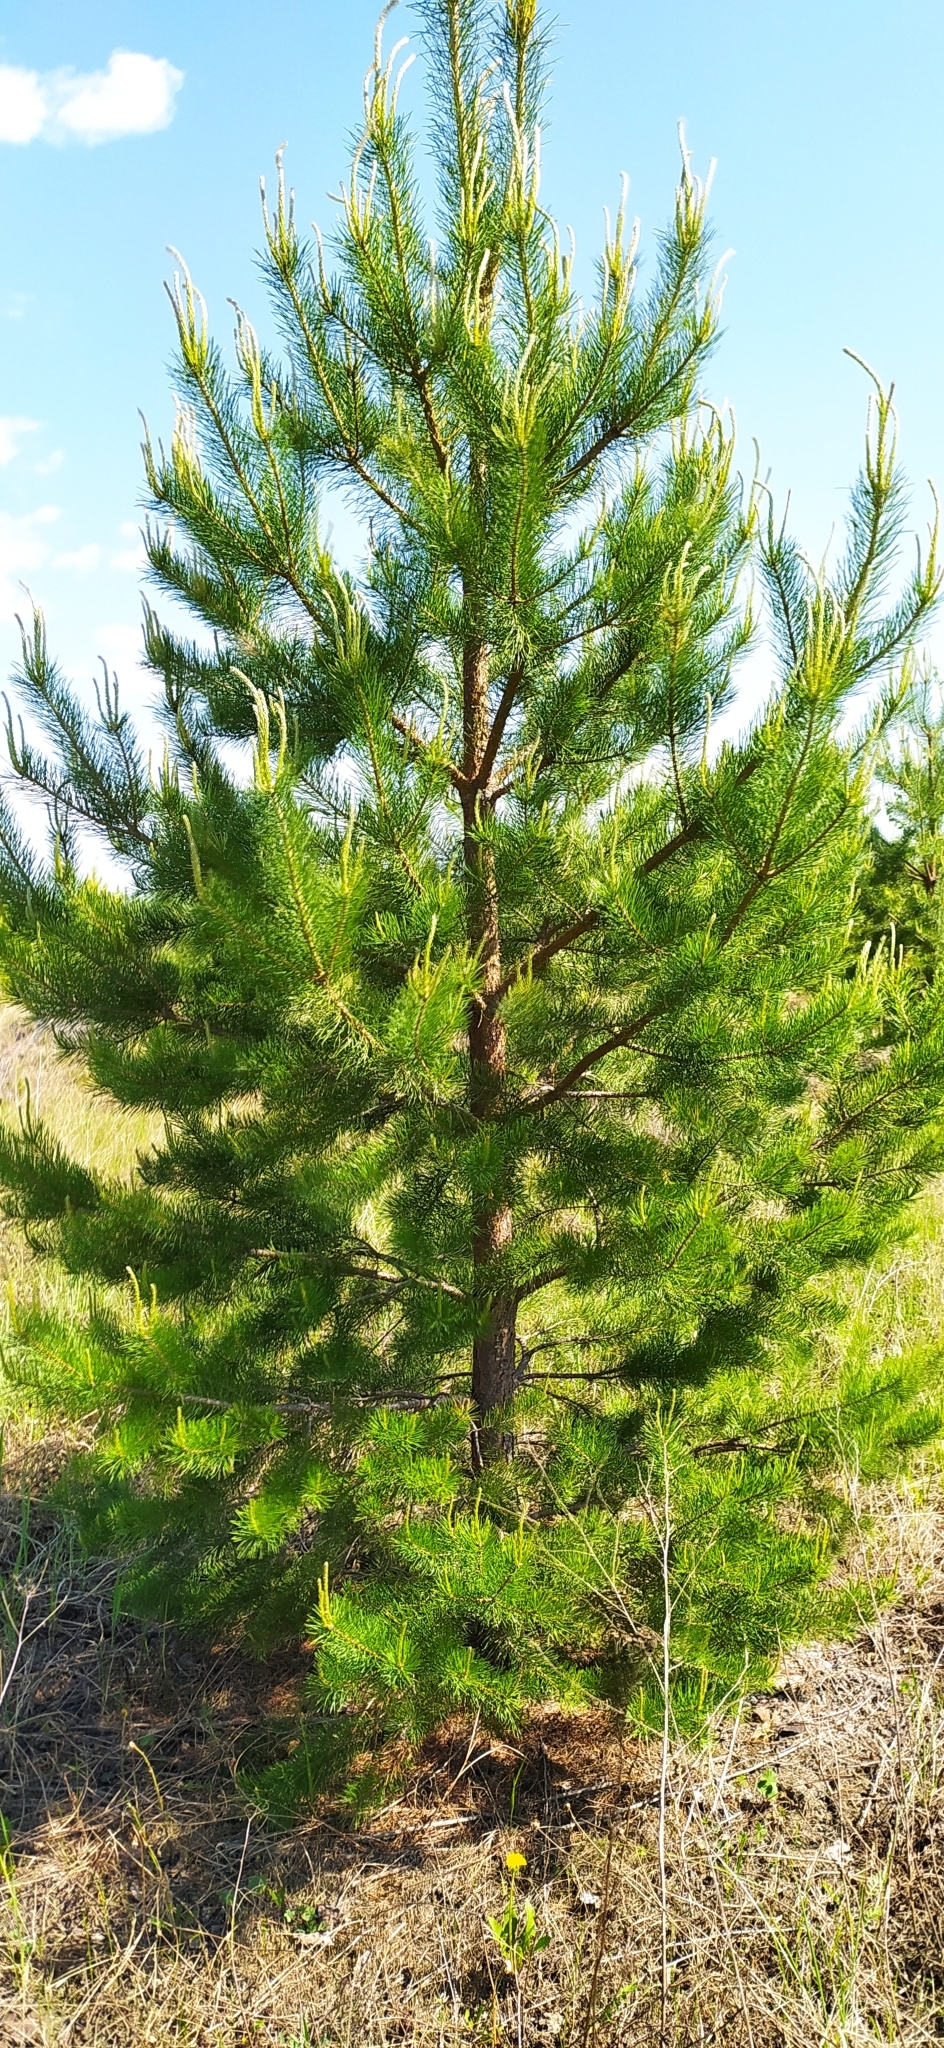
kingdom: Plantae
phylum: Tracheophyta
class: Pinopsida
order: Pinales
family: Pinaceae
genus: Pinus
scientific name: Pinus sylvestris
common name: Scots pine
